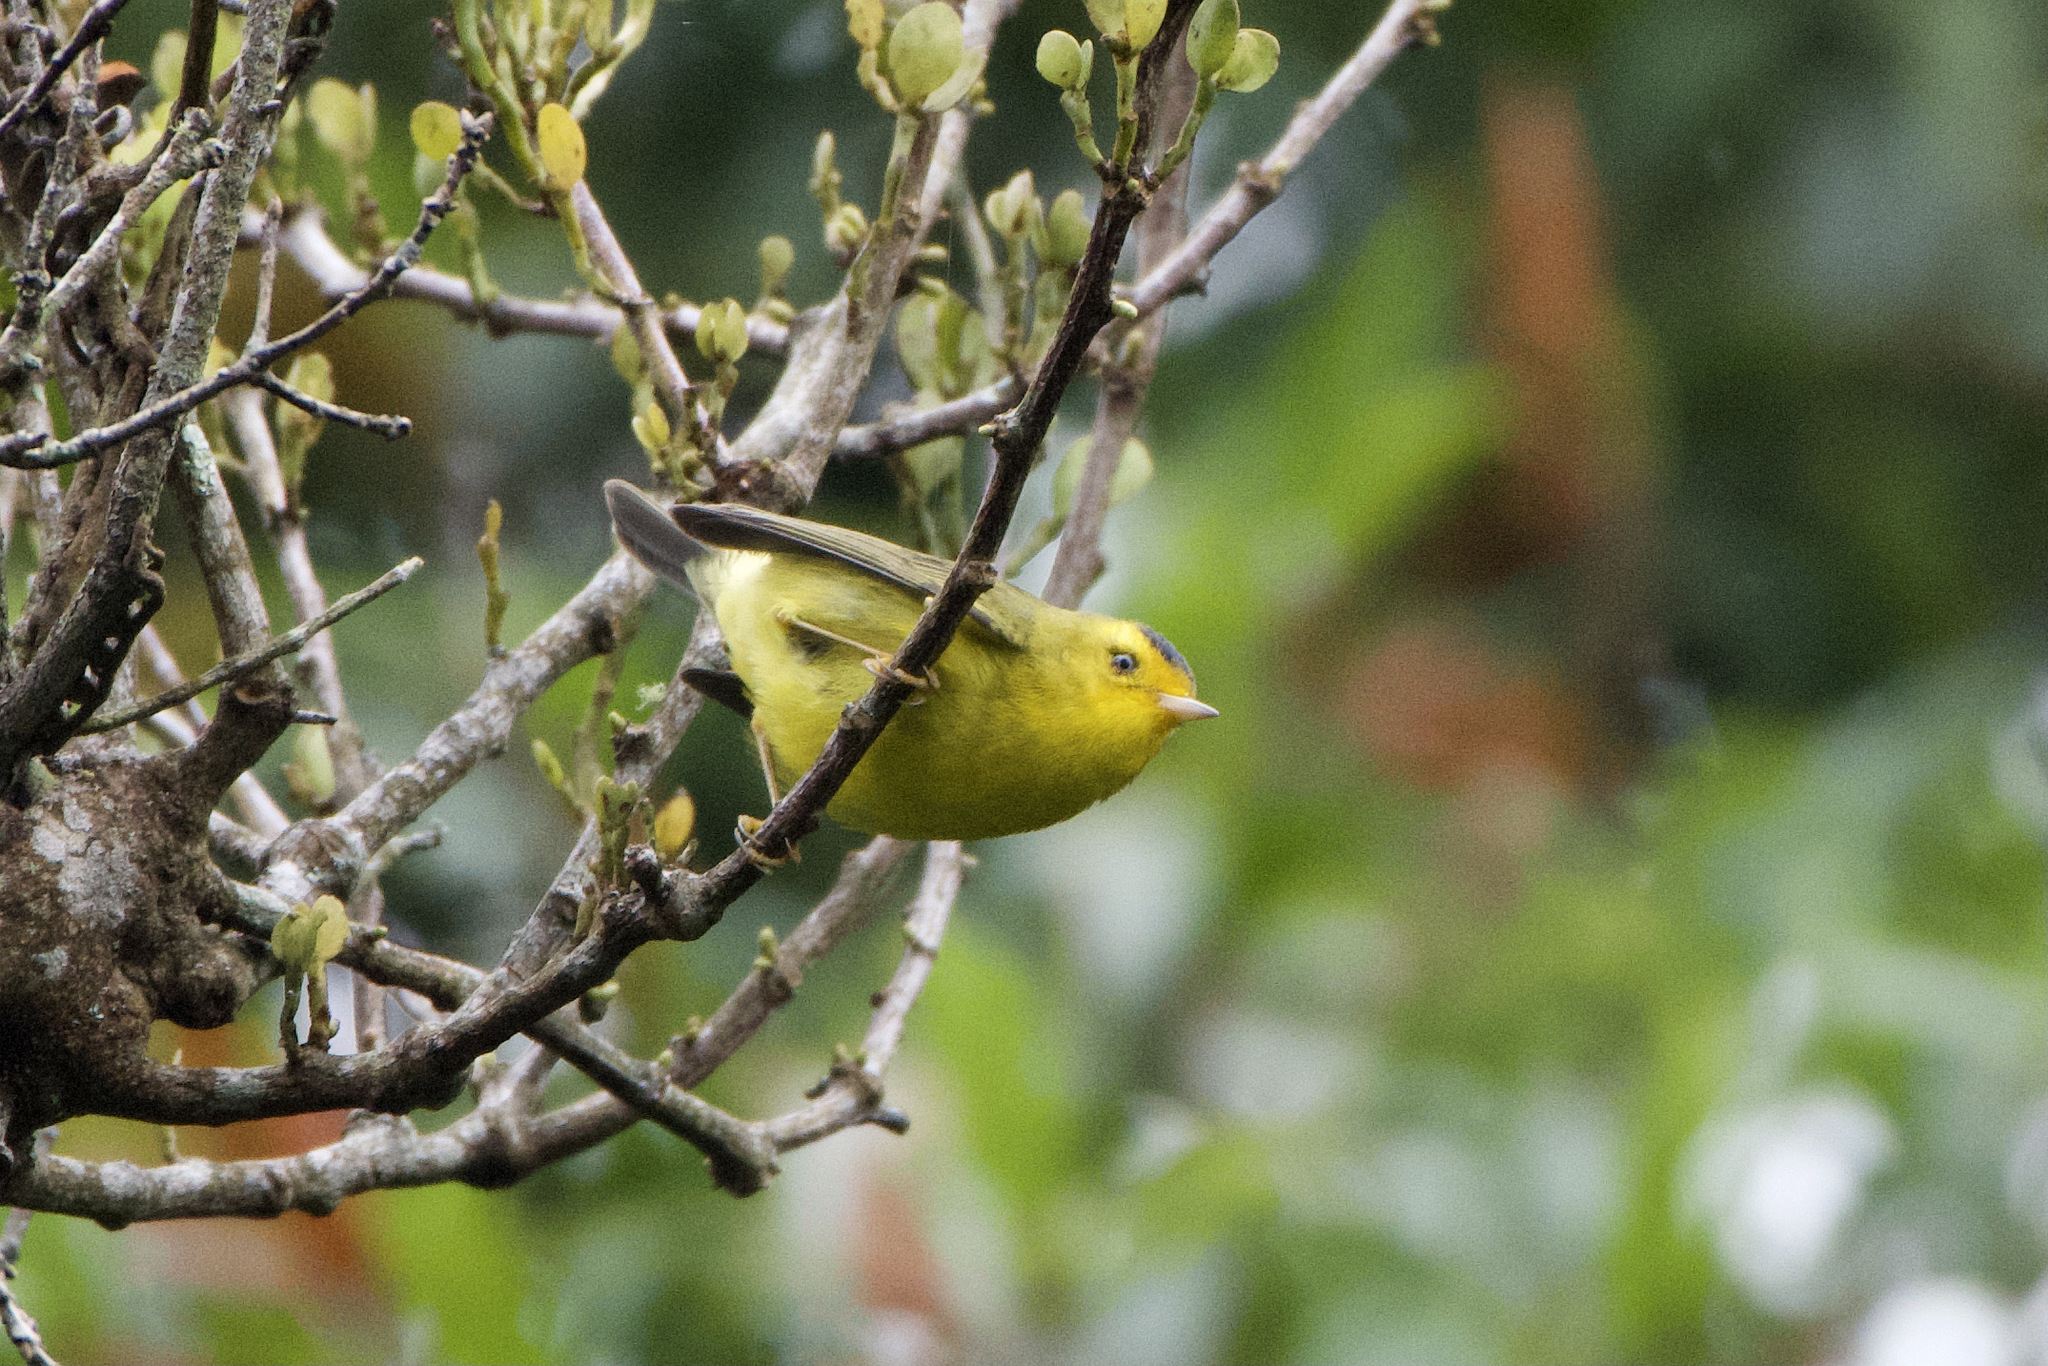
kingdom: Animalia
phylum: Chordata
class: Aves
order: Passeriformes
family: Parulidae
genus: Cardellina
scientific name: Cardellina pusilla
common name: Wilson's warbler
